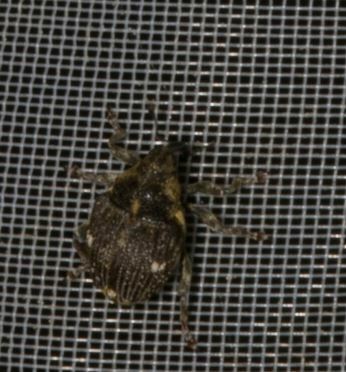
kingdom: Animalia
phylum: Arthropoda
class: Insecta
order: Coleoptera
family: Curculionidae
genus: Nedyus
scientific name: Nedyus quadrimaculatus
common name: Small nettle weevil
